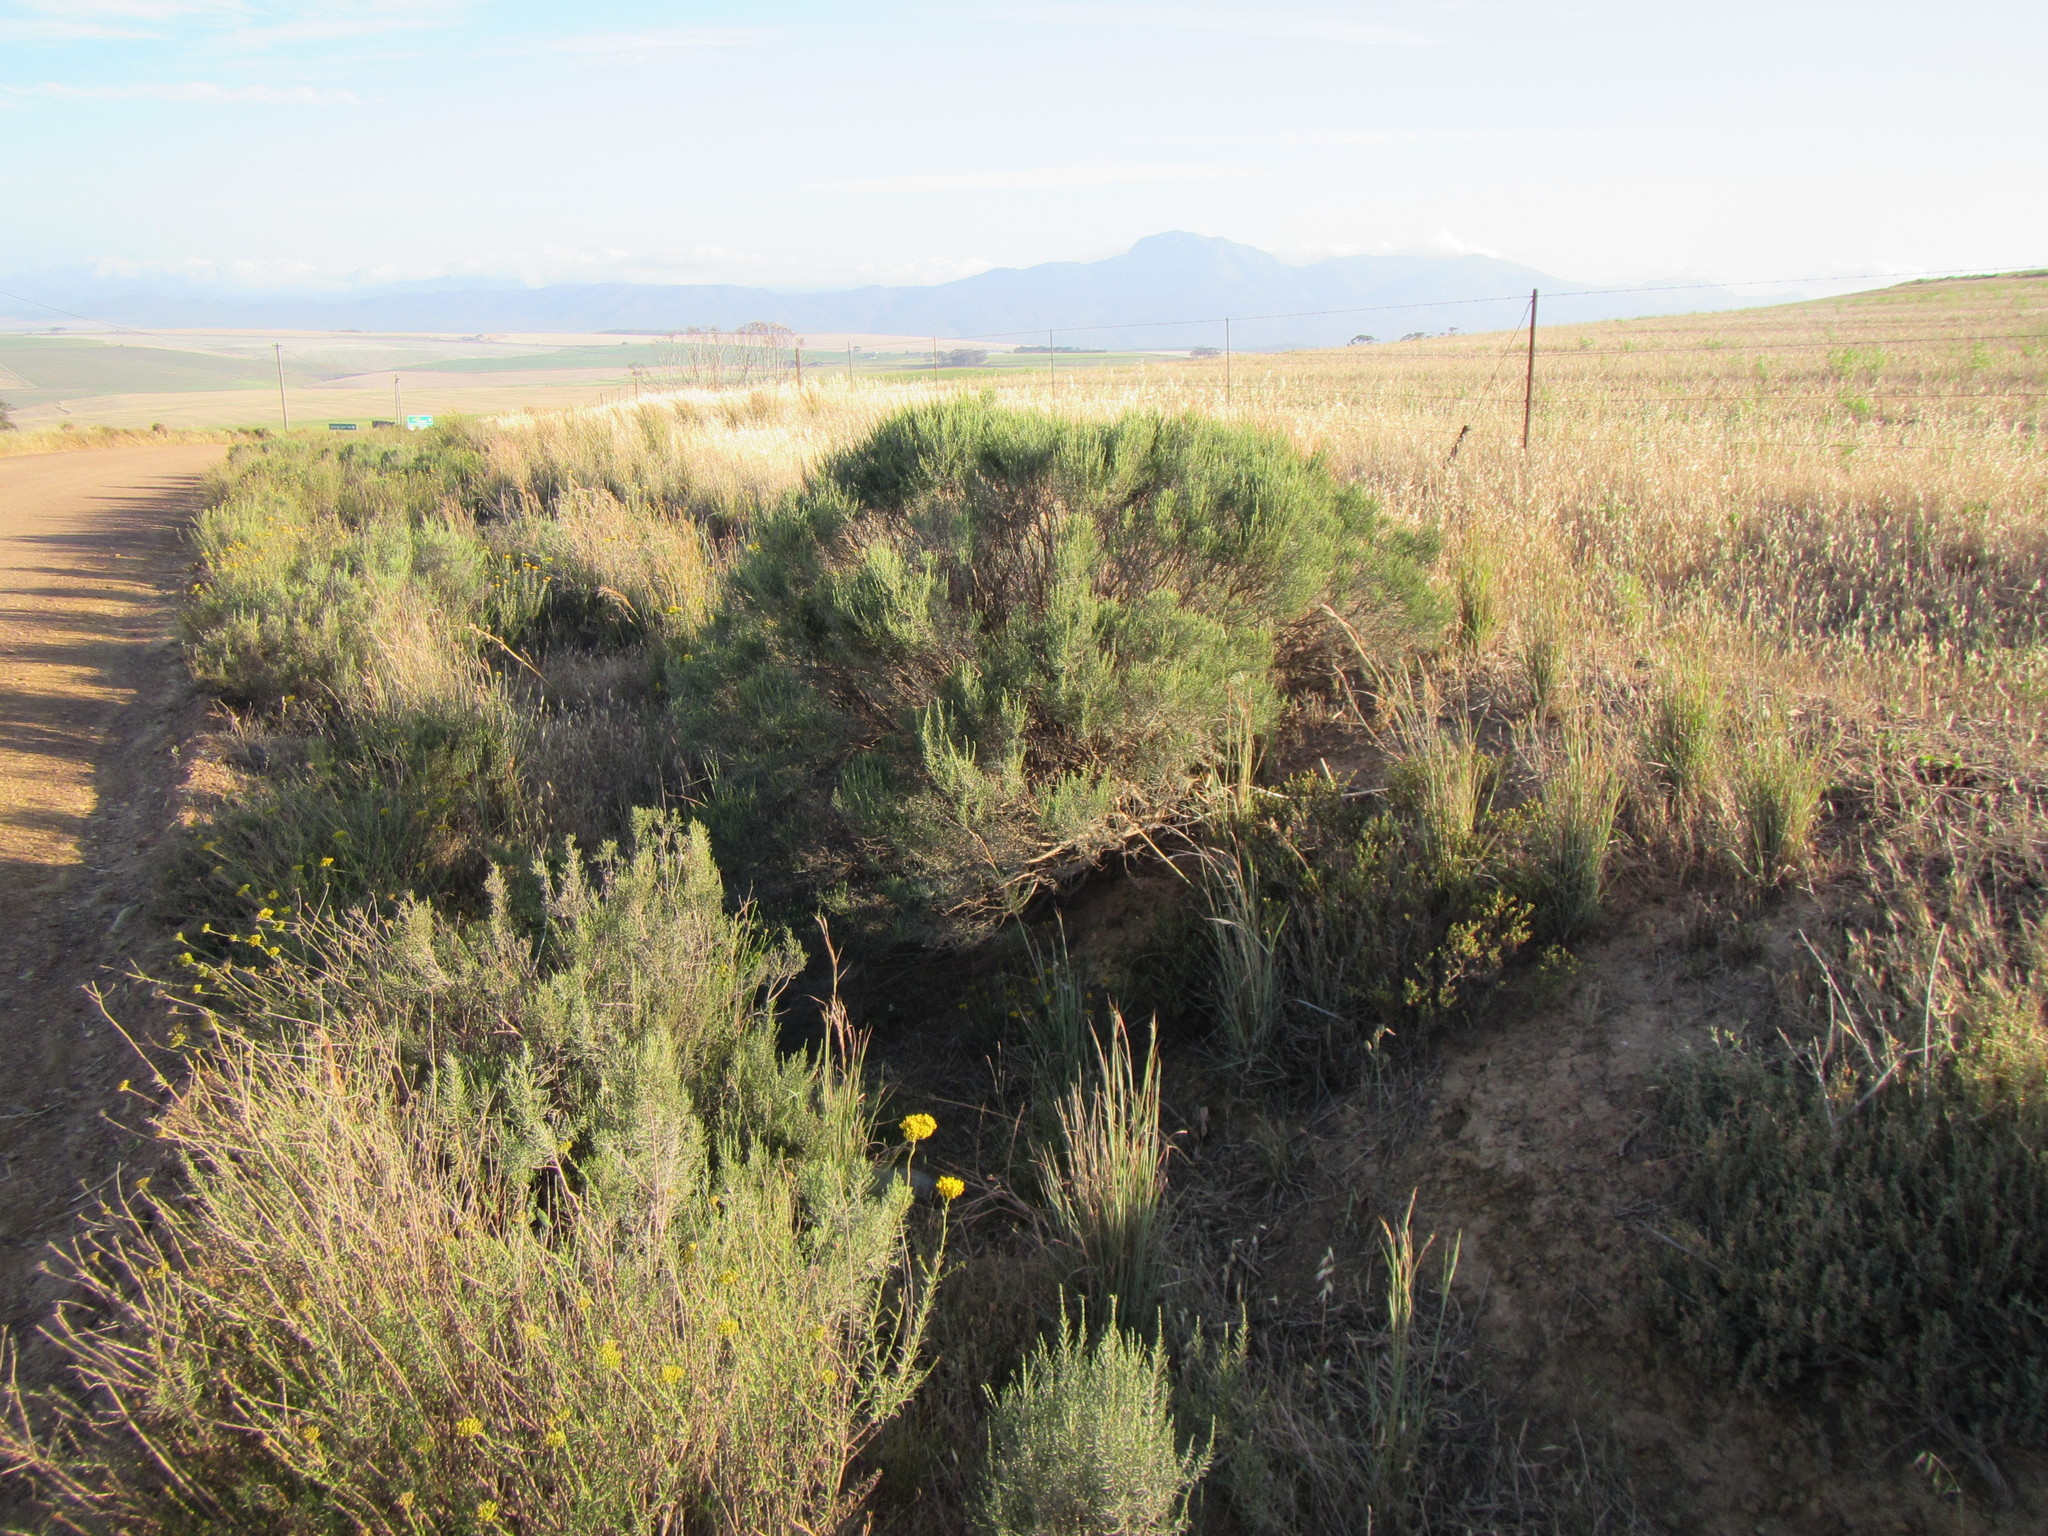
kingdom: Plantae
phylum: Tracheophyta
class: Magnoliopsida
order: Asterales
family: Asteraceae
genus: Dicerothamnus
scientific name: Dicerothamnus rhinocerotis
